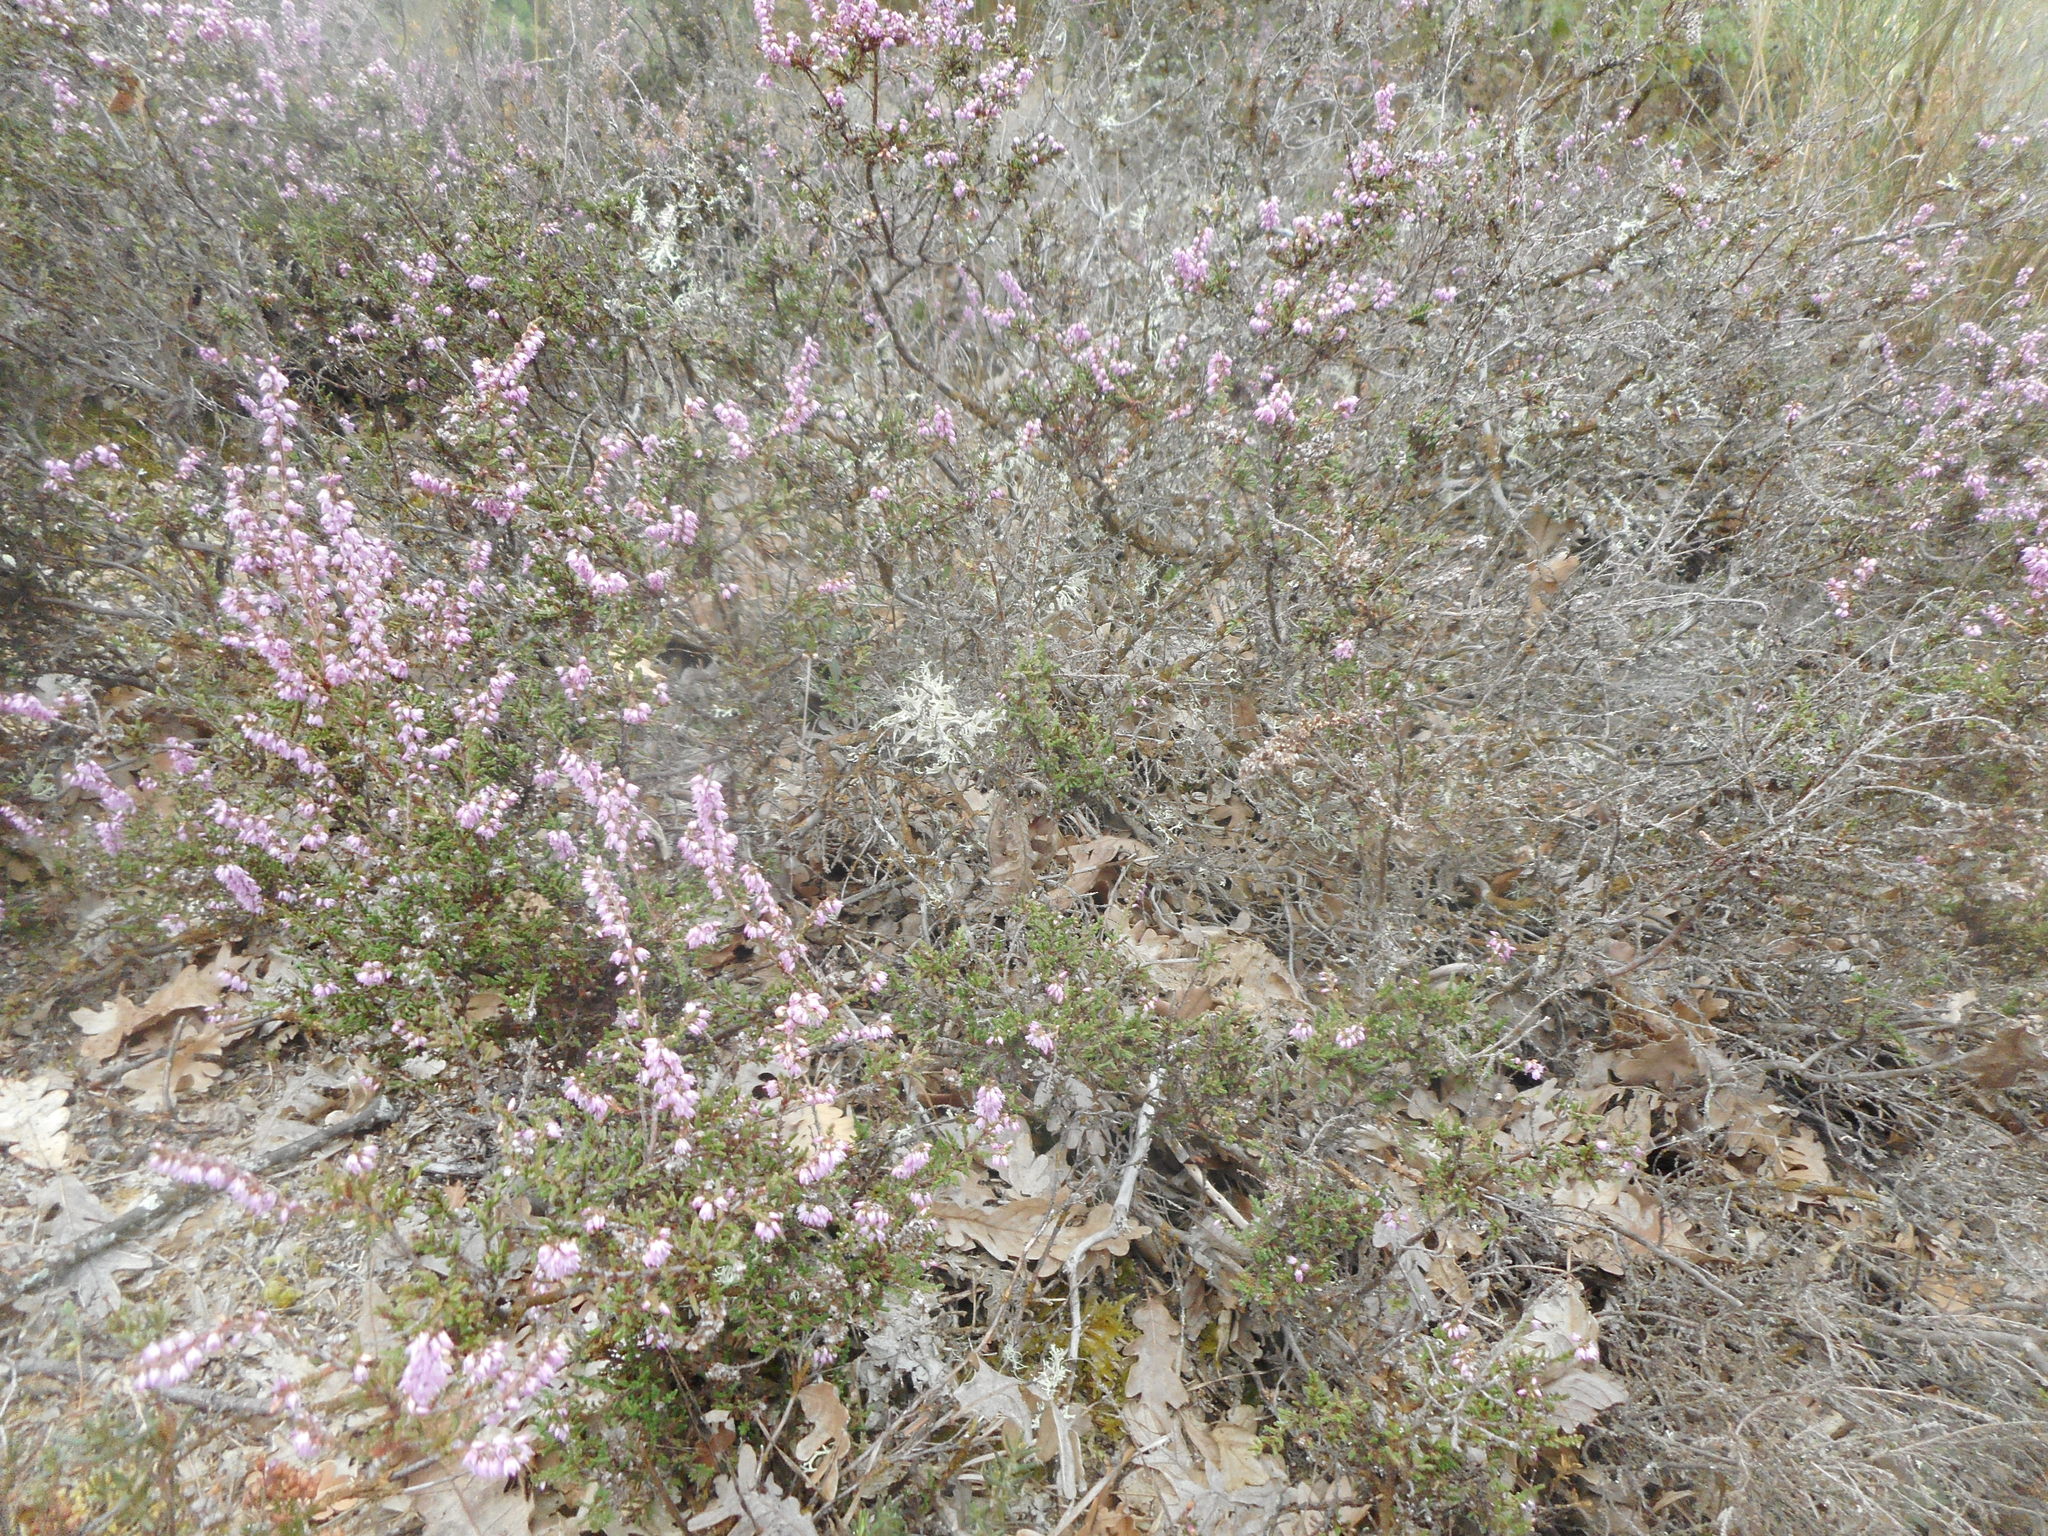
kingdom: Plantae
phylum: Tracheophyta
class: Magnoliopsida
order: Ericales
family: Ericaceae
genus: Calluna
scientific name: Calluna vulgaris
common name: Heather
